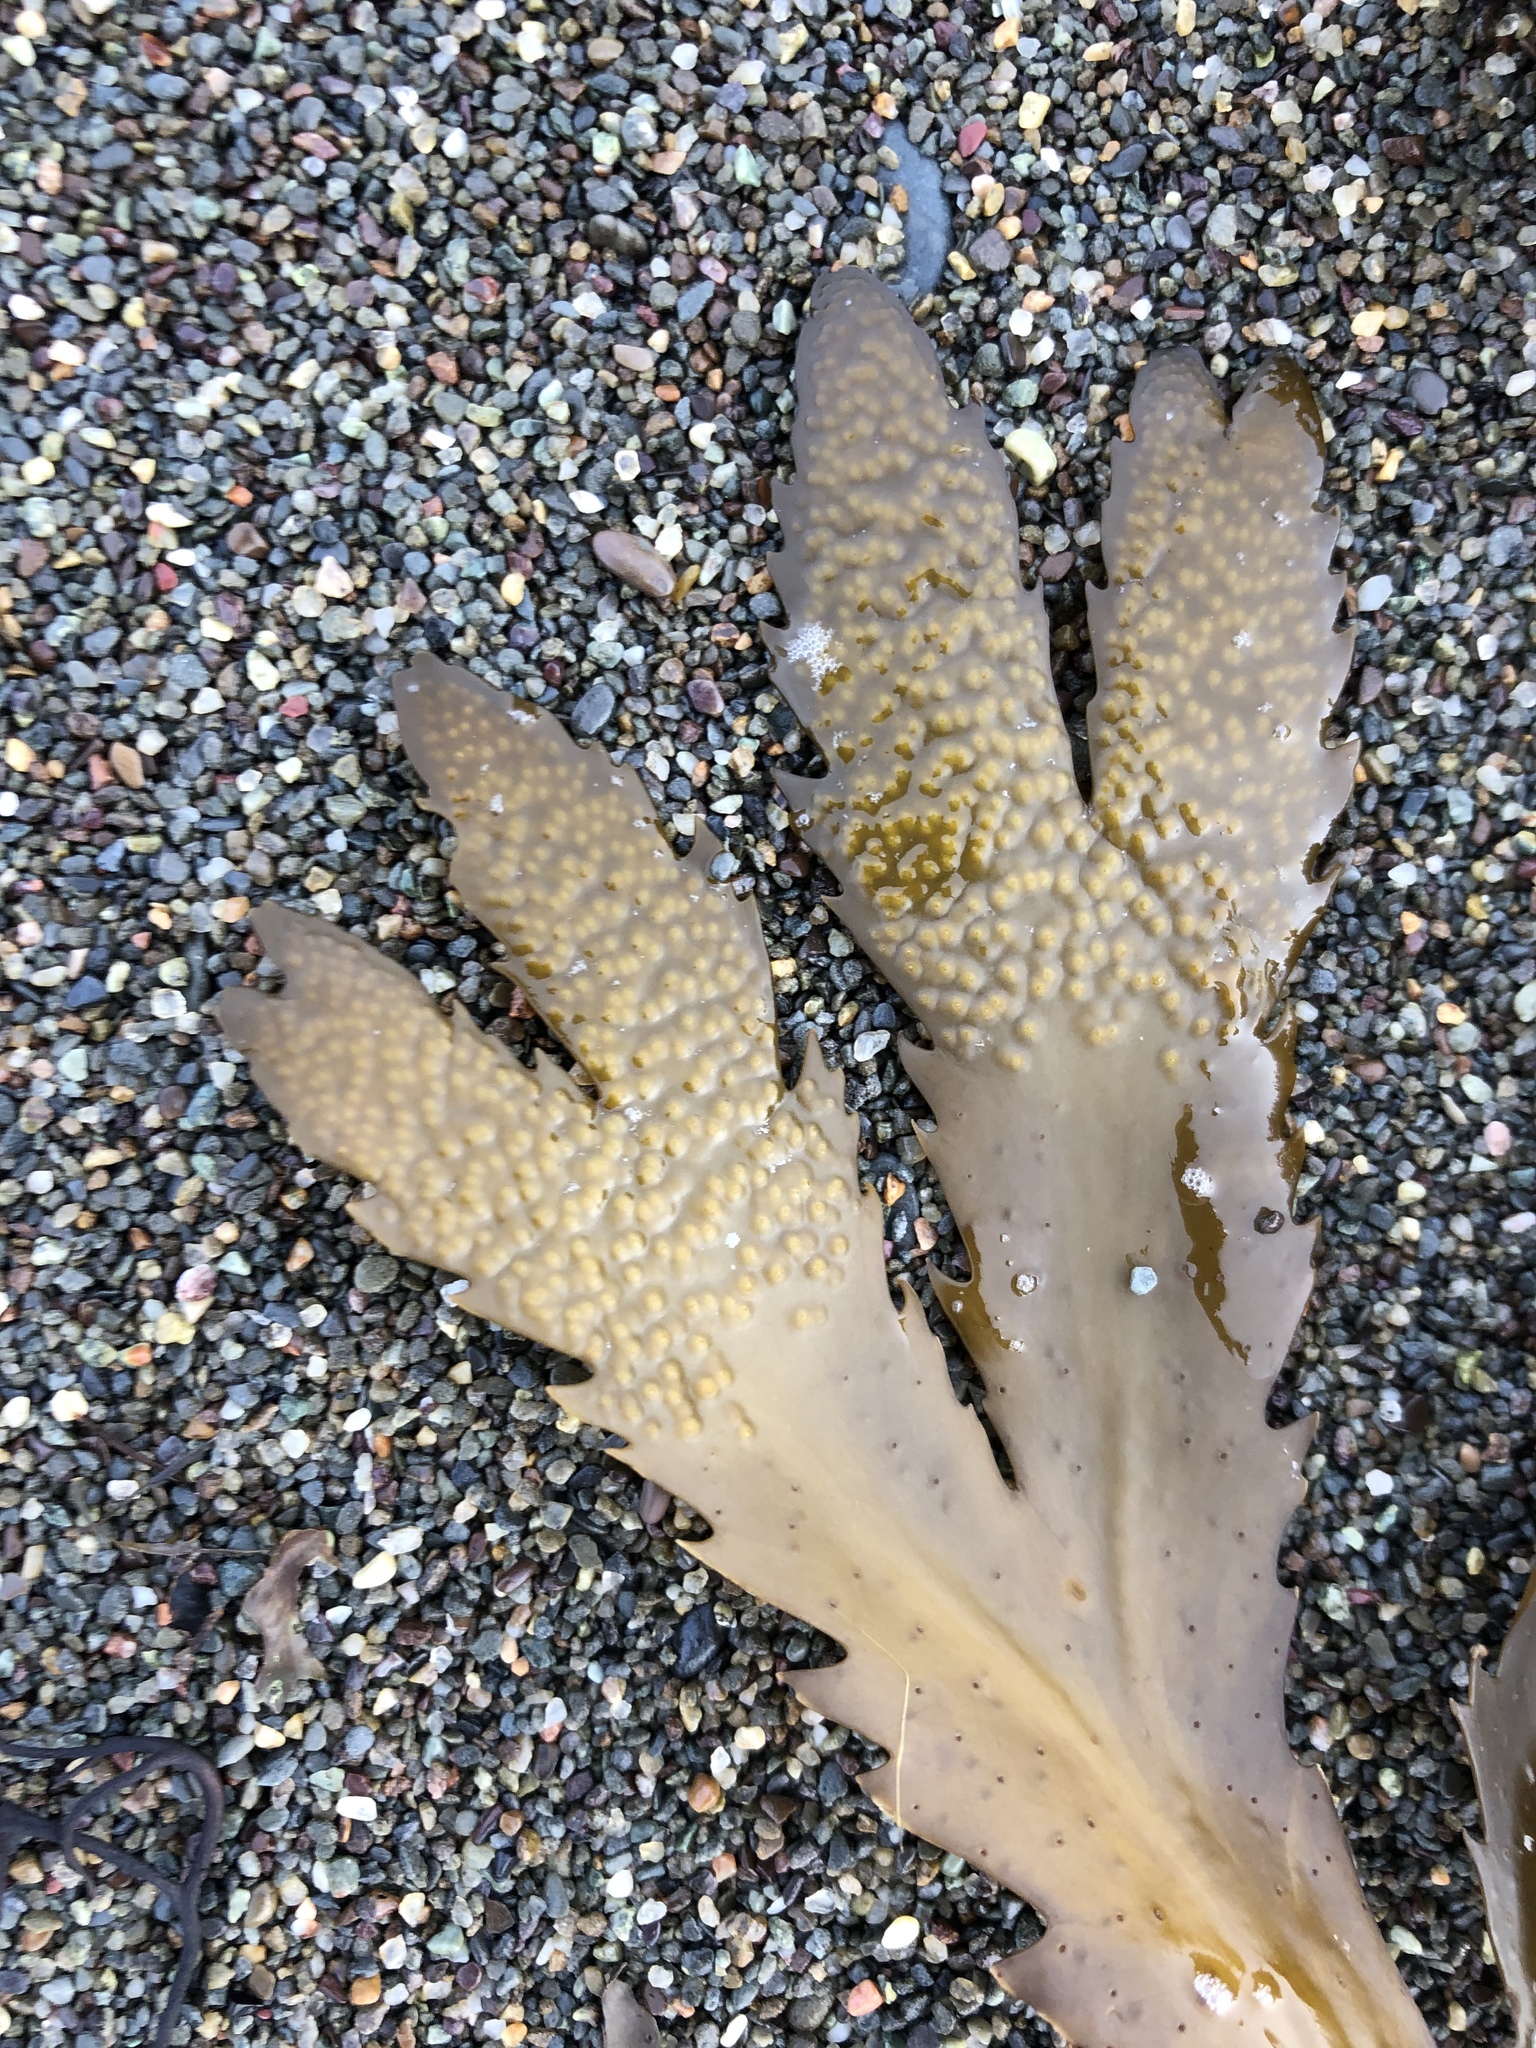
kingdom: Chromista
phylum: Ochrophyta
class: Phaeophyceae
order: Fucales
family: Fucaceae
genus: Fucus
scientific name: Fucus serratus
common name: Toothed wrack
